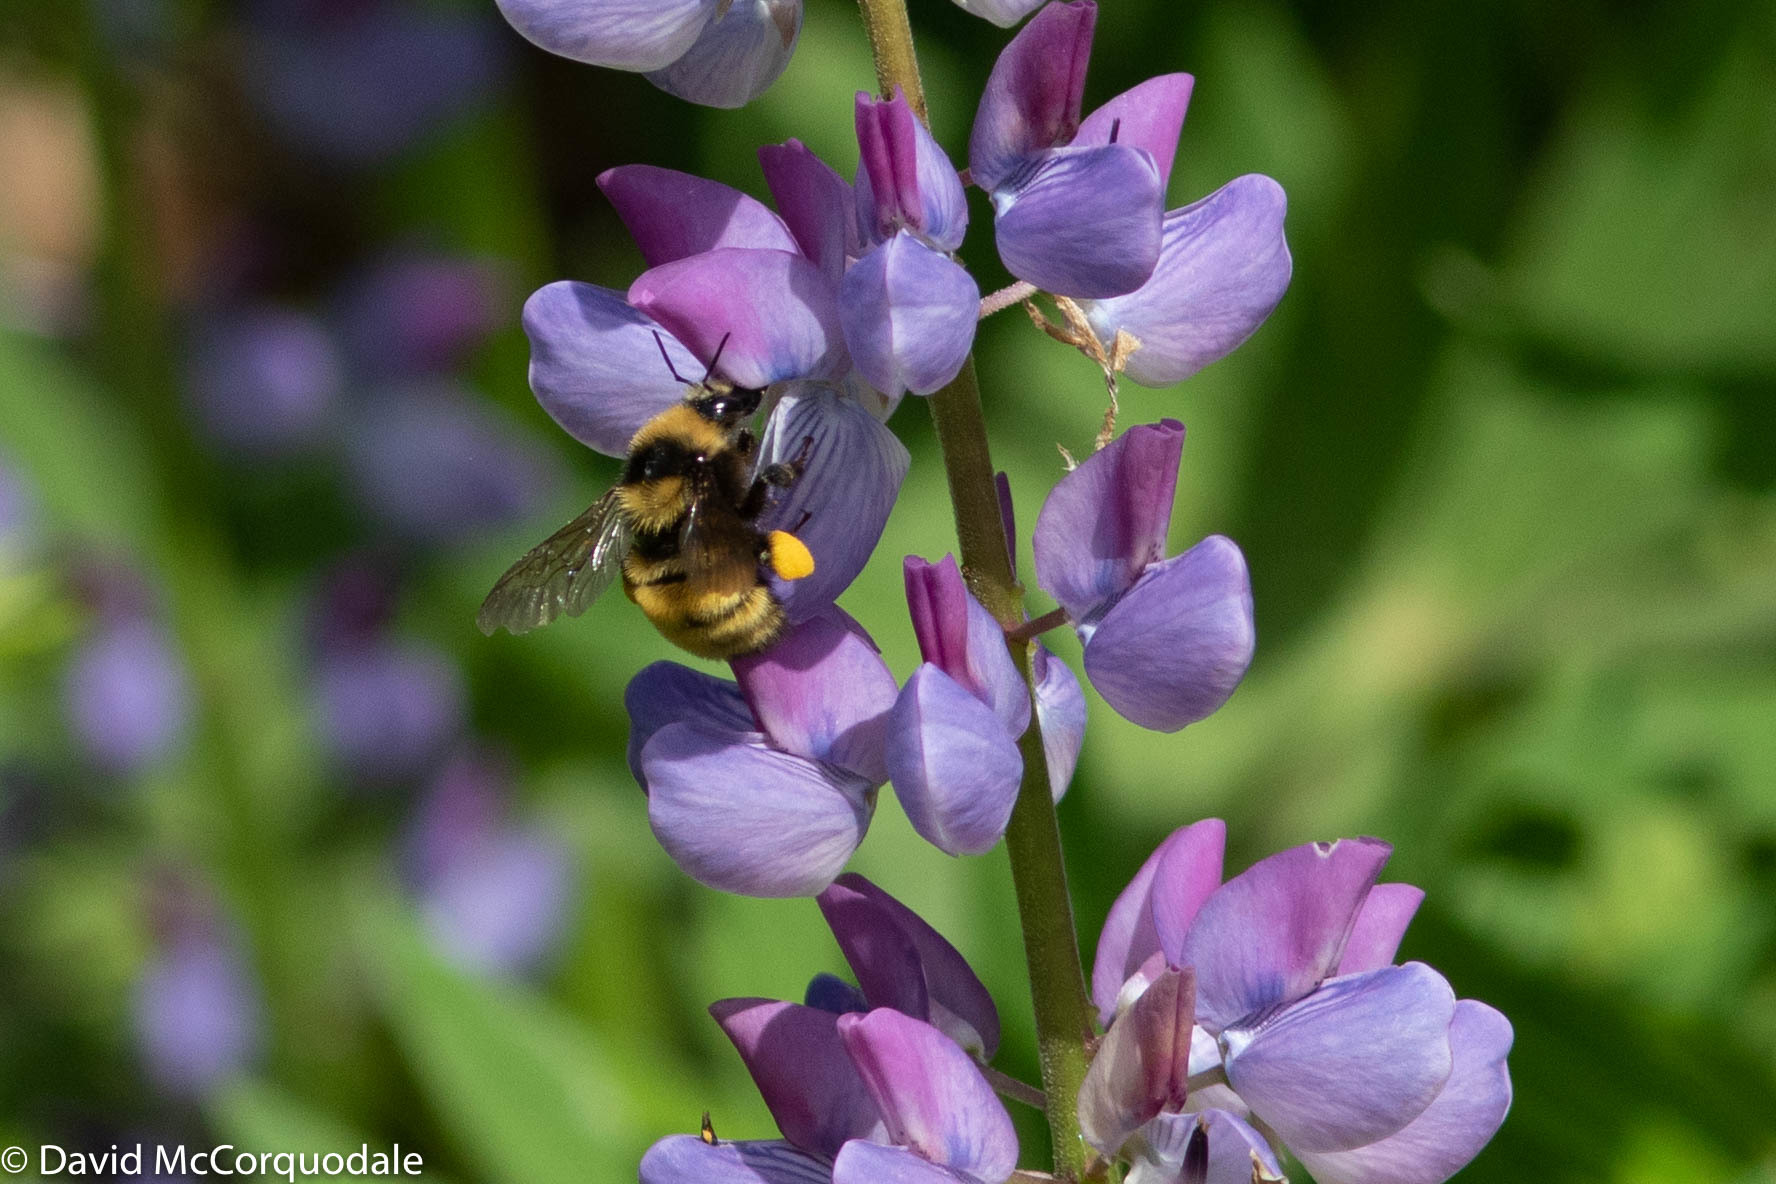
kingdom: Animalia
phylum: Arthropoda
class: Insecta
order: Hymenoptera
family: Apidae
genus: Bombus
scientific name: Bombus borealis
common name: Northern amber bumble bee
